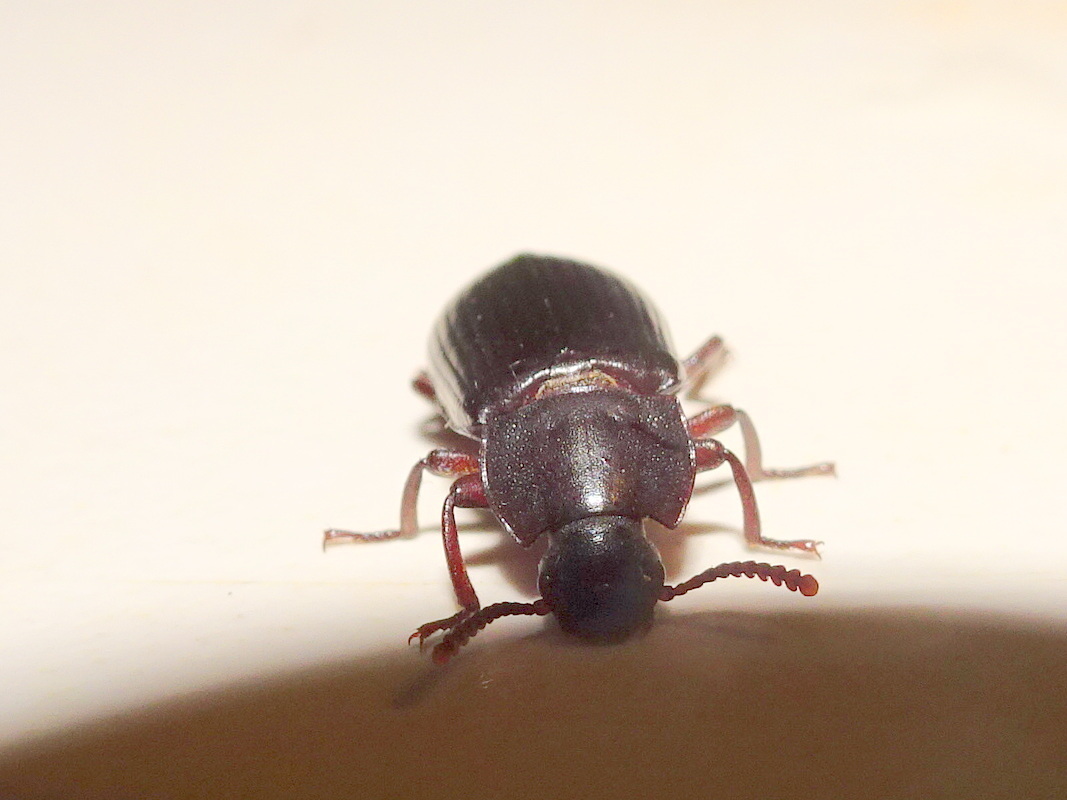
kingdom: Animalia
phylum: Arthropoda
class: Insecta
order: Coleoptera
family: Tenebrionidae
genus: Neatus
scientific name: Neatus tenebrioides
